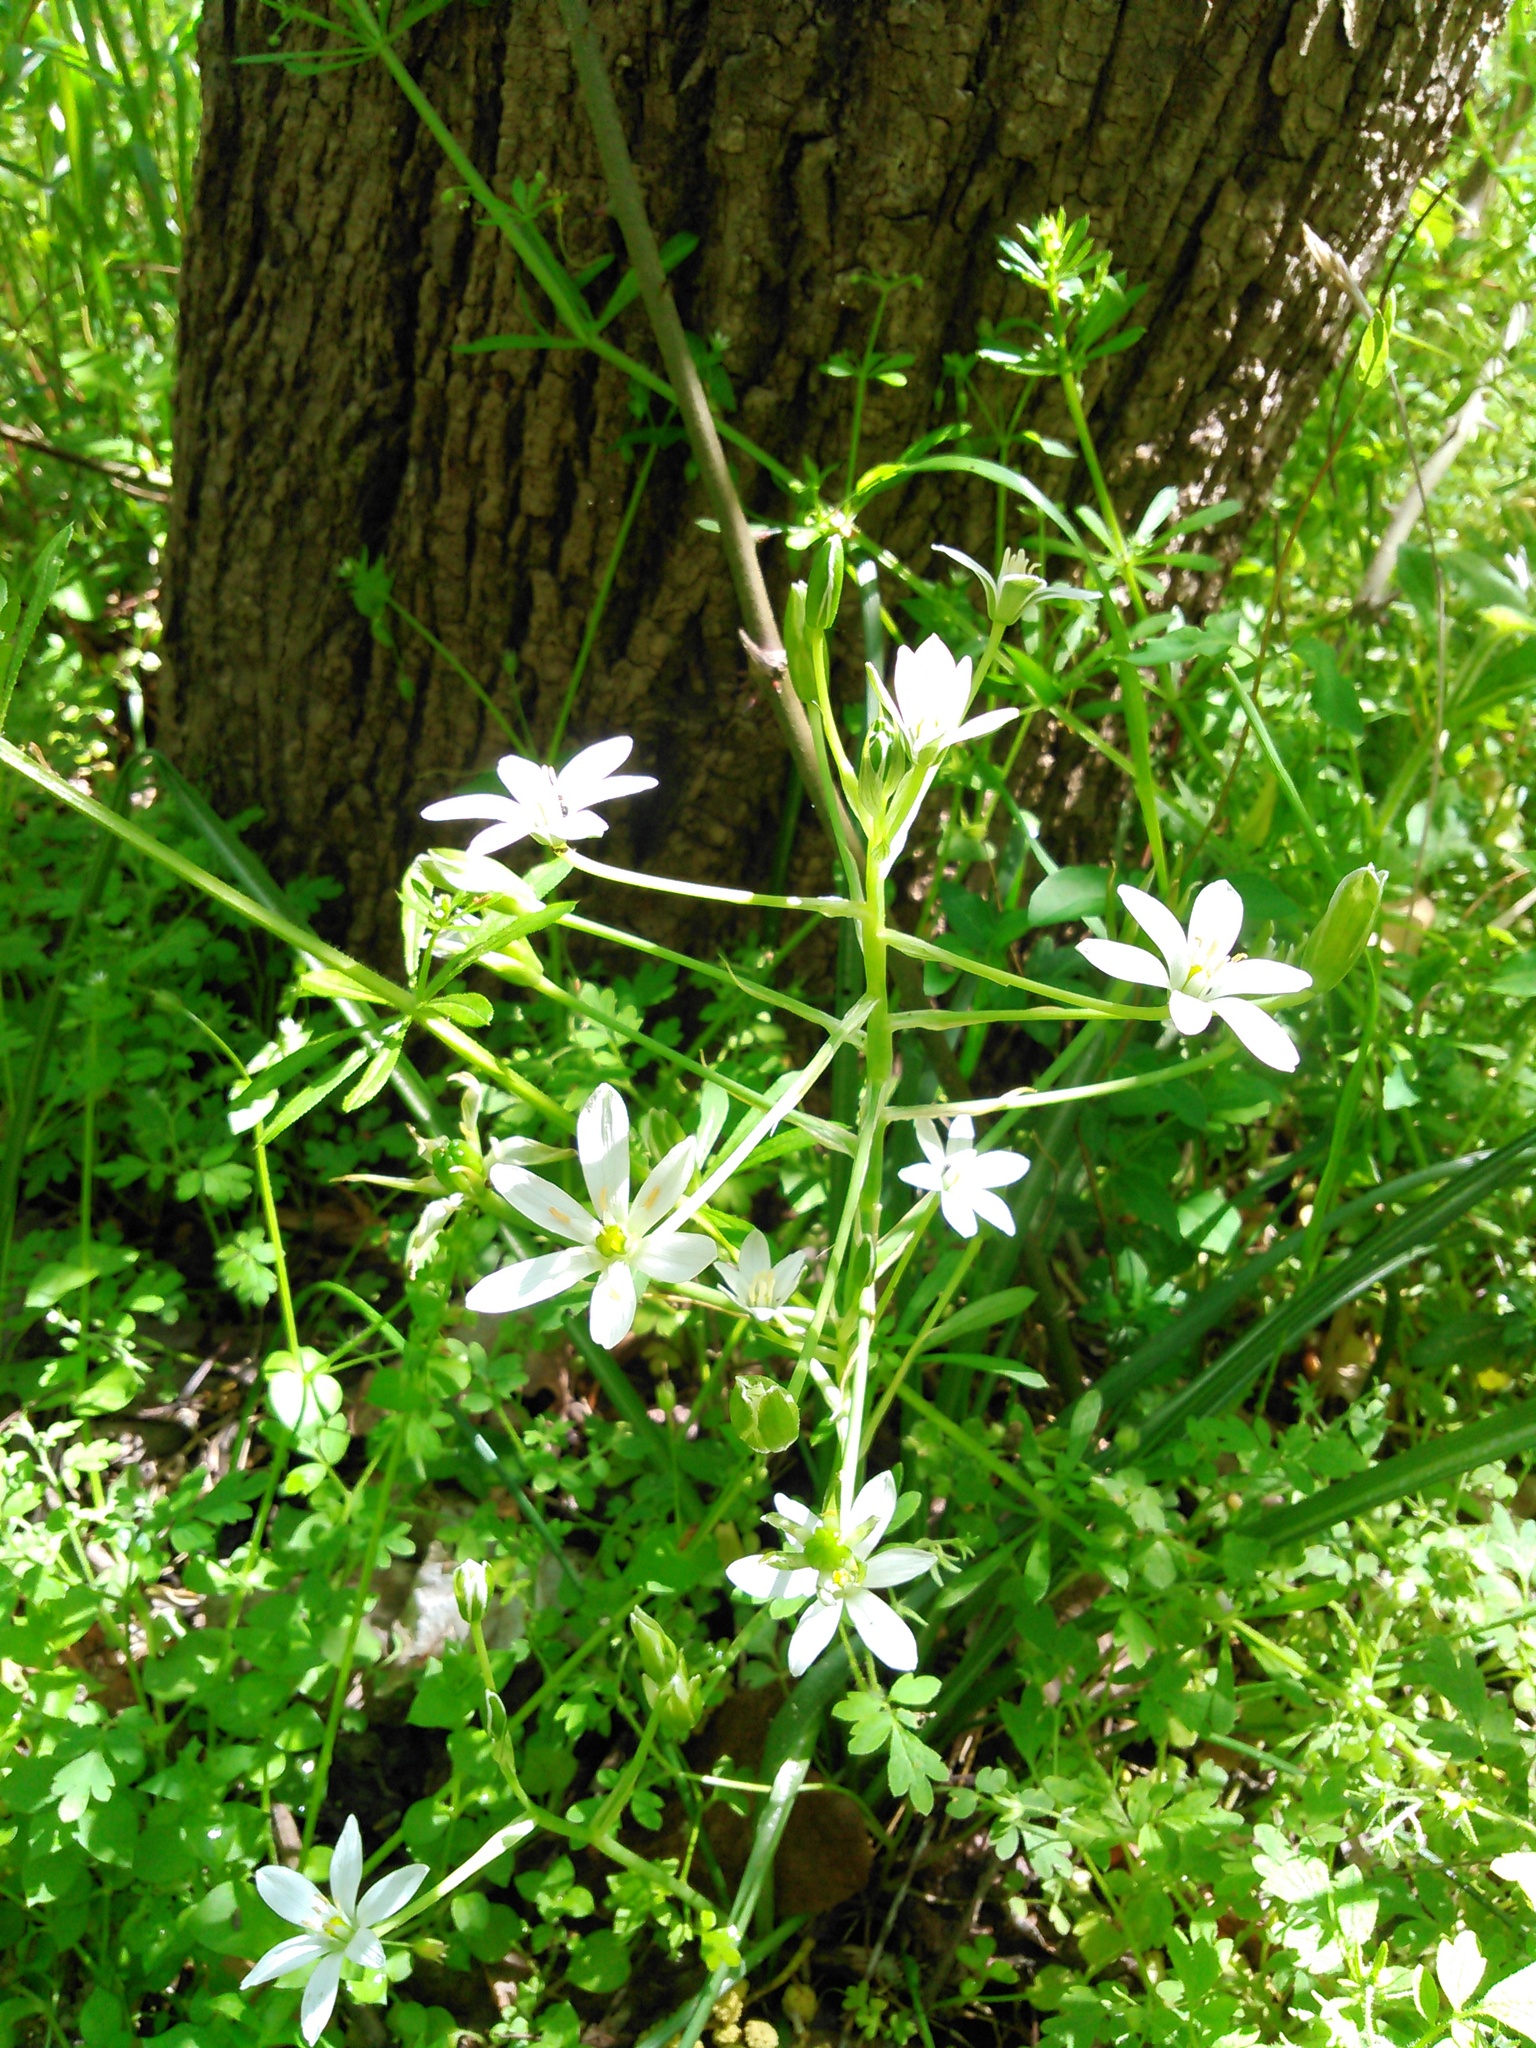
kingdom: Plantae
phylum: Tracheophyta
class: Liliopsida
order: Asparagales
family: Asparagaceae
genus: Ornithogalum
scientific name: Ornithogalum umbellatum
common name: Garden star-of-bethlehem
